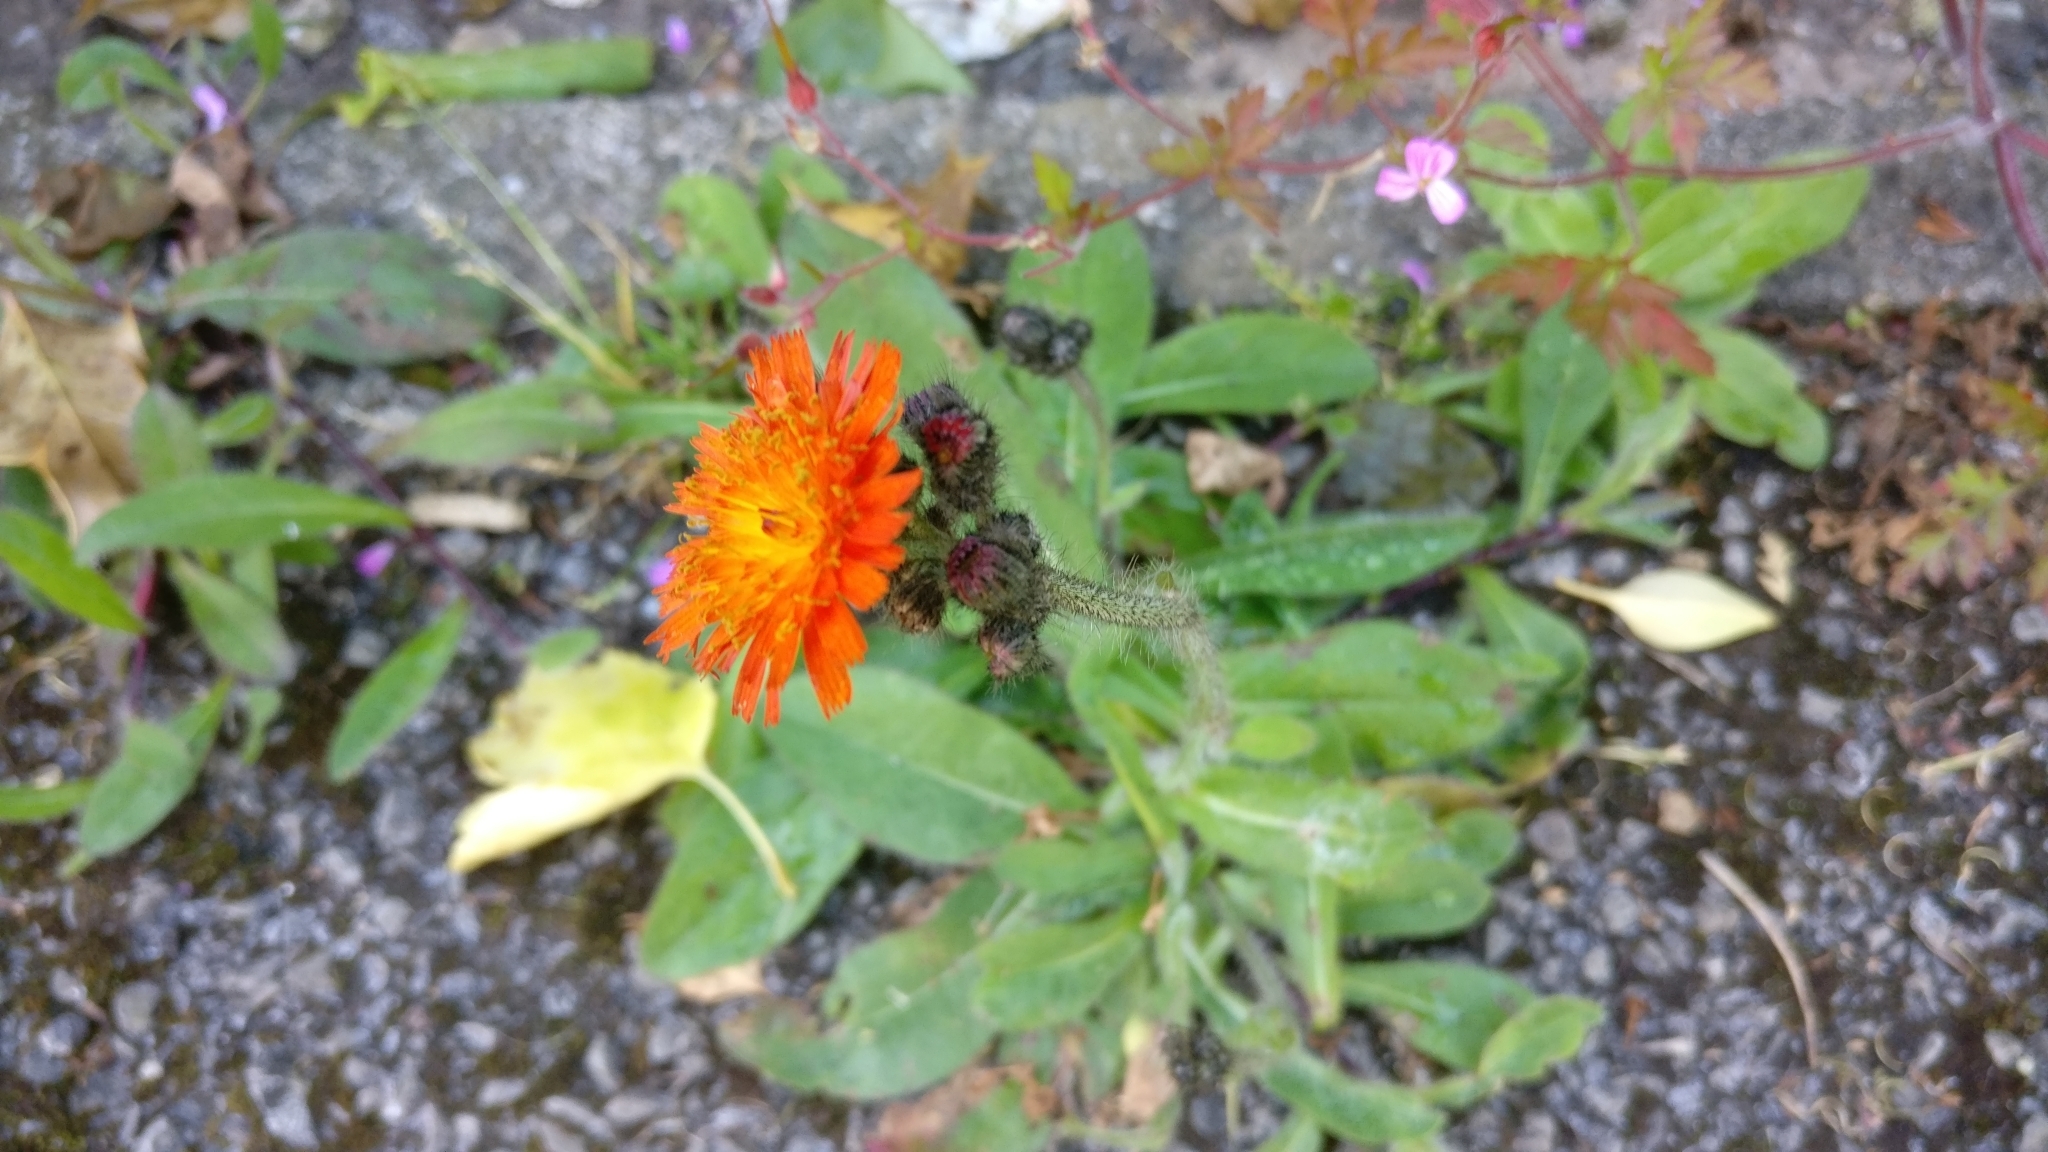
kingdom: Plantae
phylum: Tracheophyta
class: Magnoliopsida
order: Asterales
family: Asteraceae
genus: Pilosella
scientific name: Pilosella aurantiaca
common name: Fox-and-cubs
